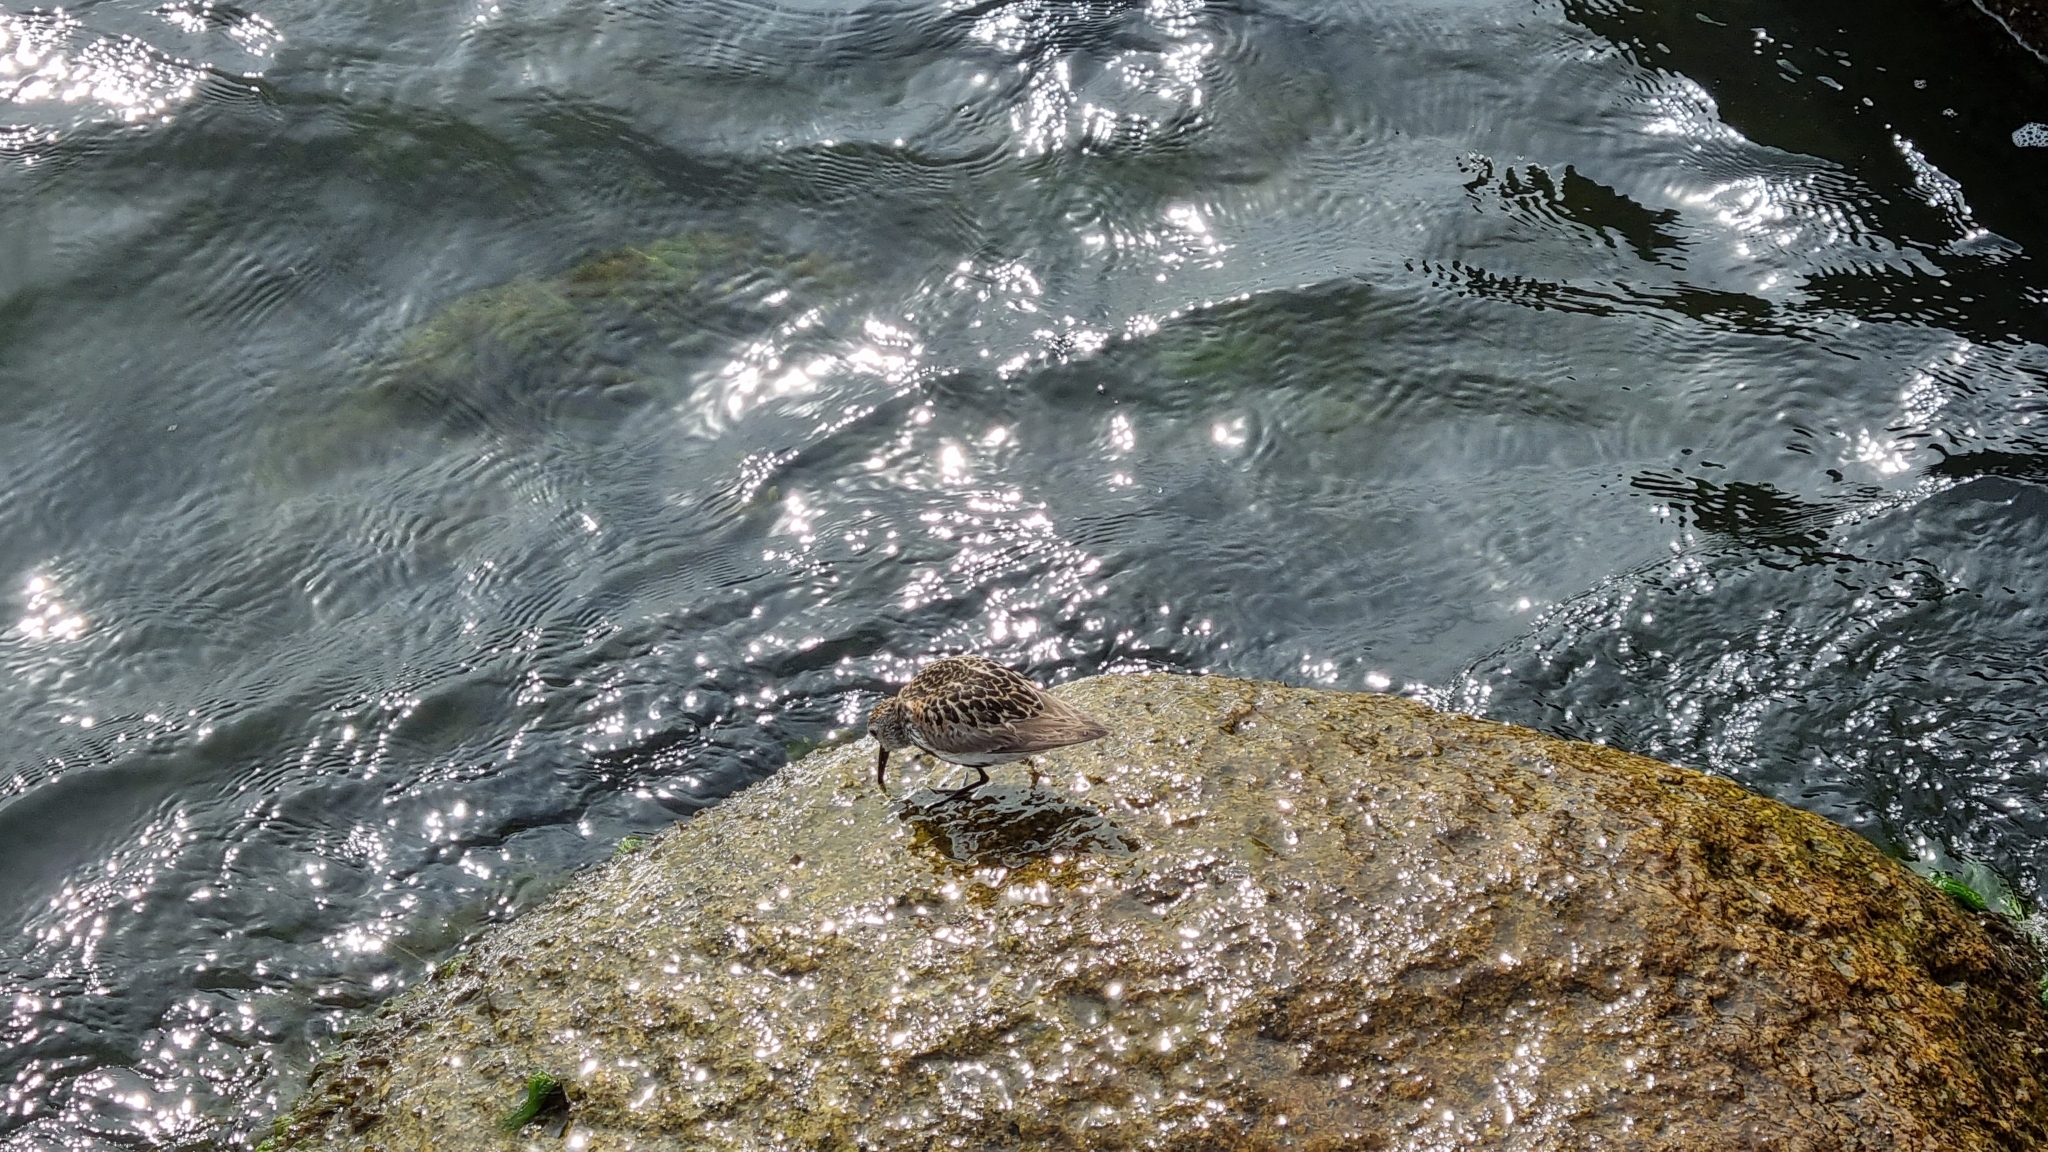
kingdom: Animalia
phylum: Chordata
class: Aves
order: Charadriiformes
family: Scolopacidae
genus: Calidris
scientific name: Calidris alpina
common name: Dunlin
